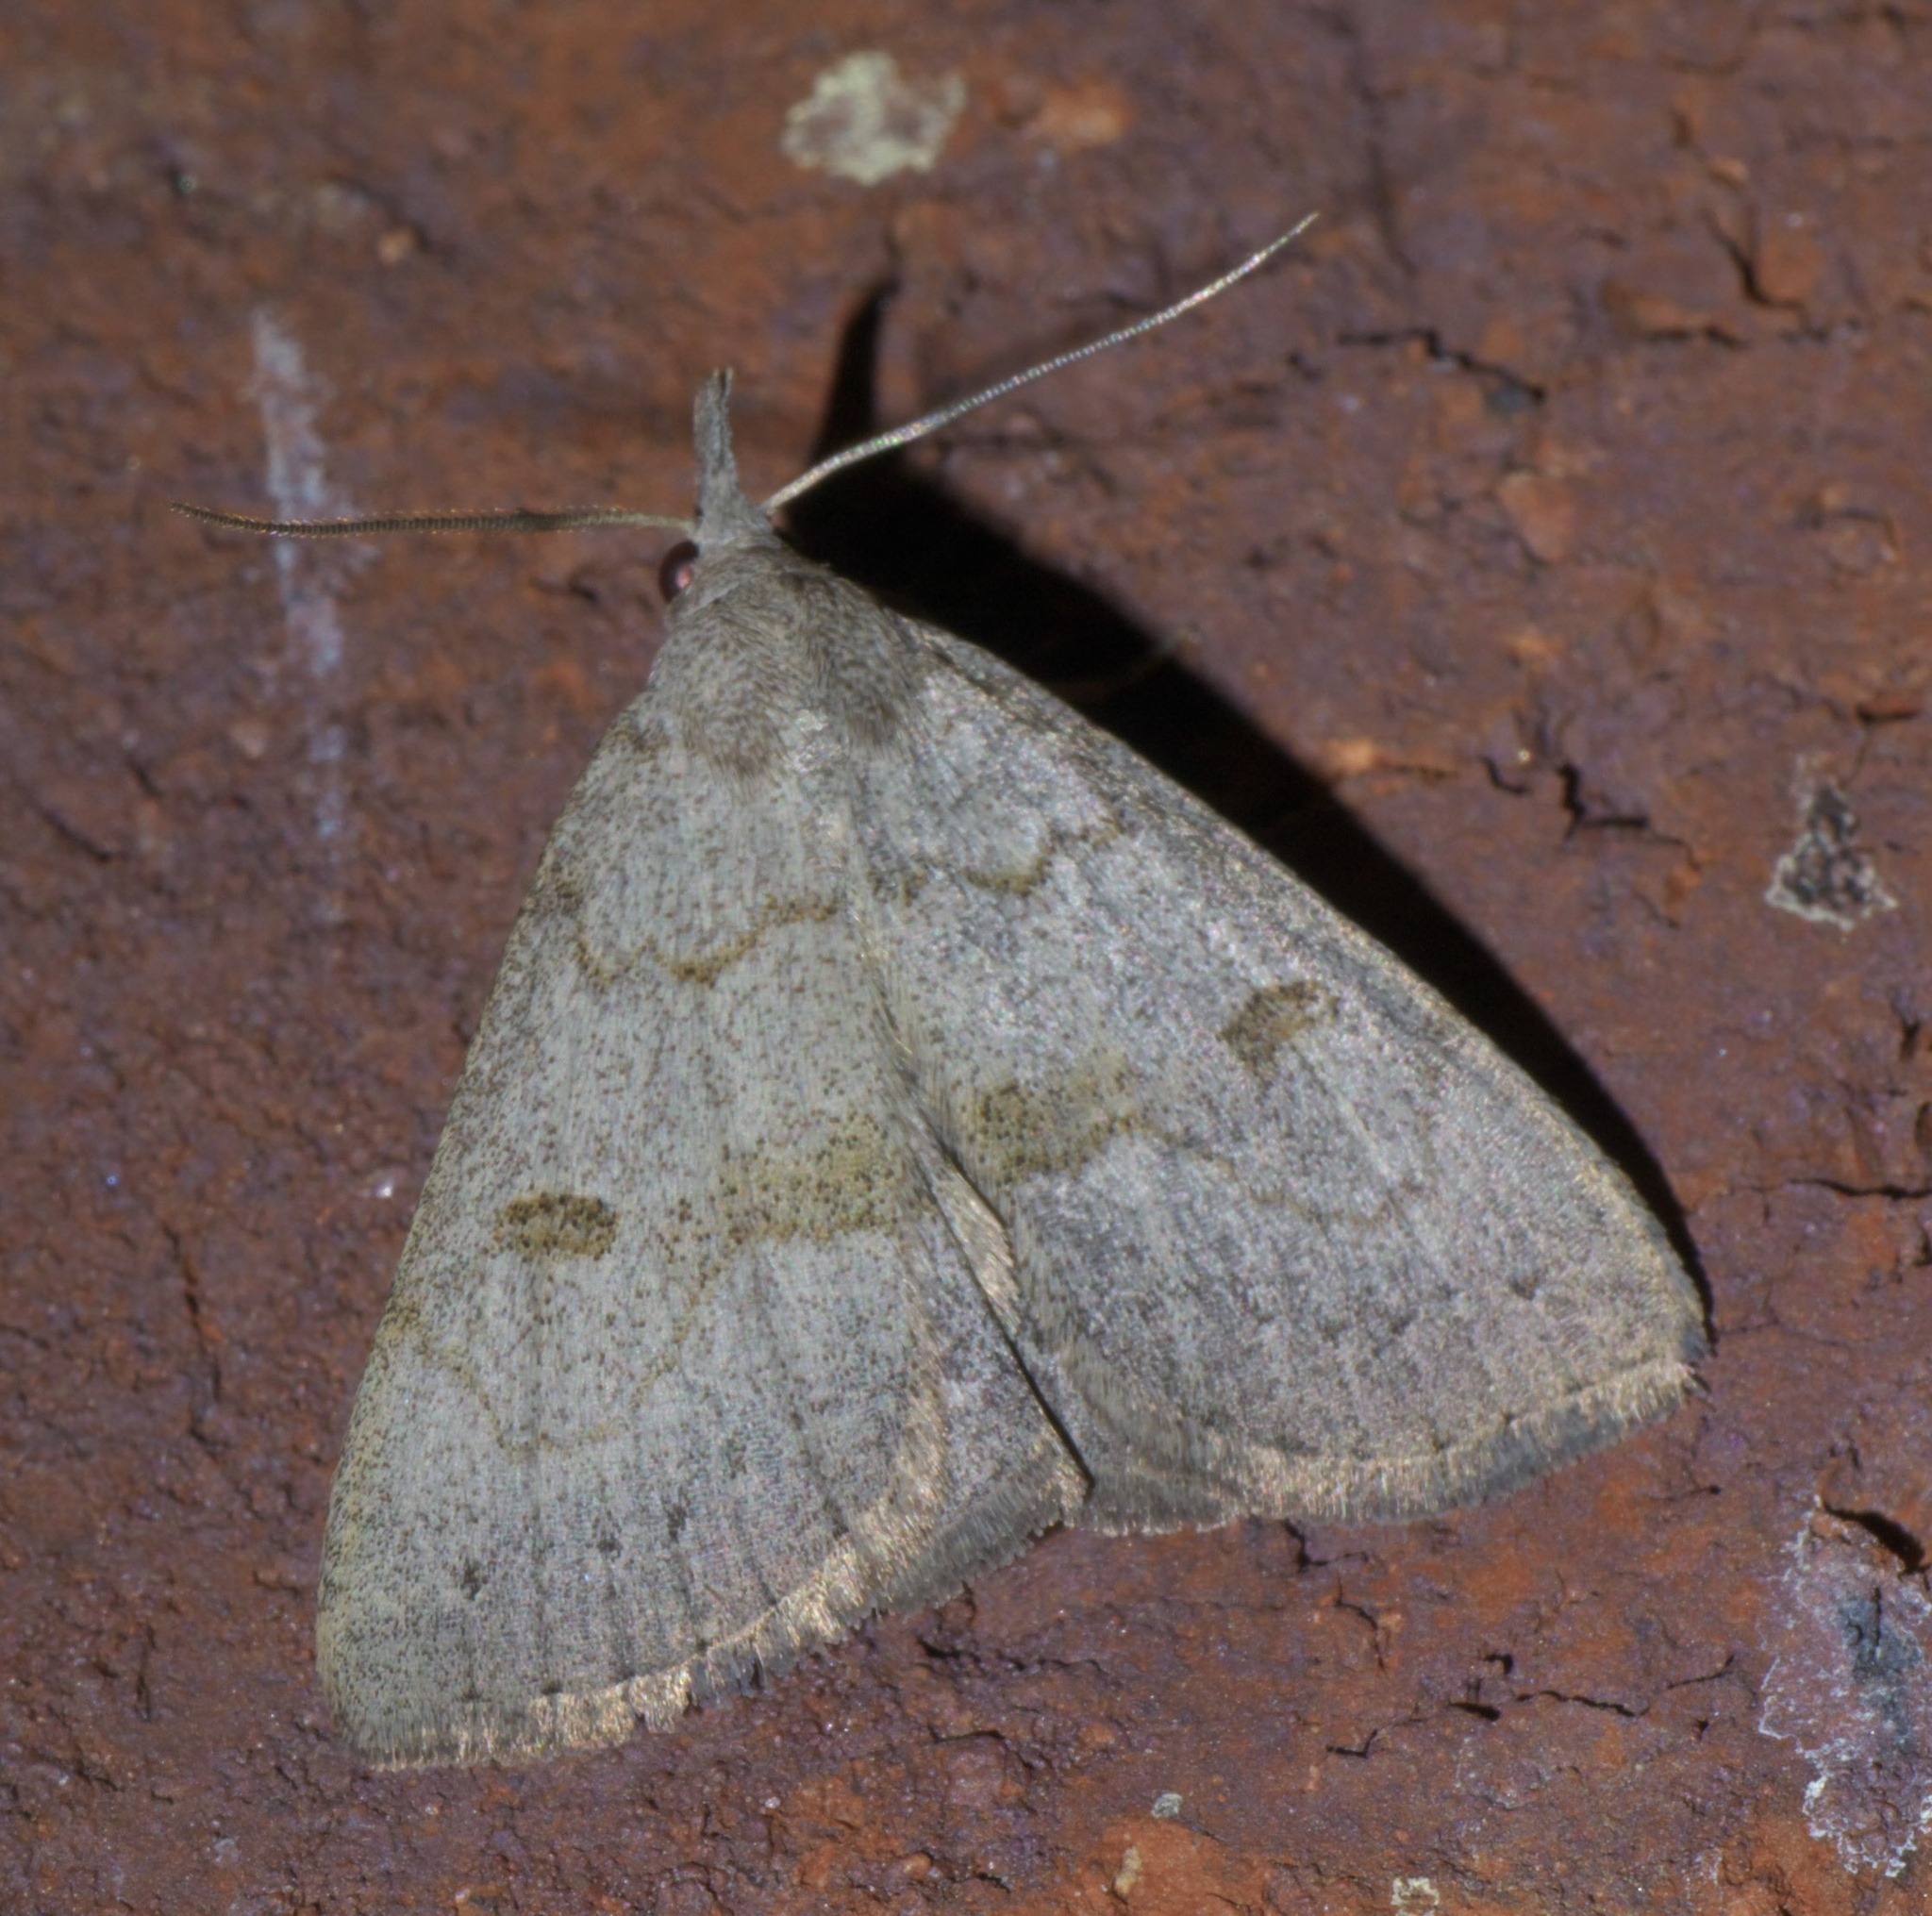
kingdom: Animalia
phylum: Arthropoda
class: Insecta
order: Lepidoptera
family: Erebidae
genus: Macrochilo
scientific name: Macrochilo morbidalis
